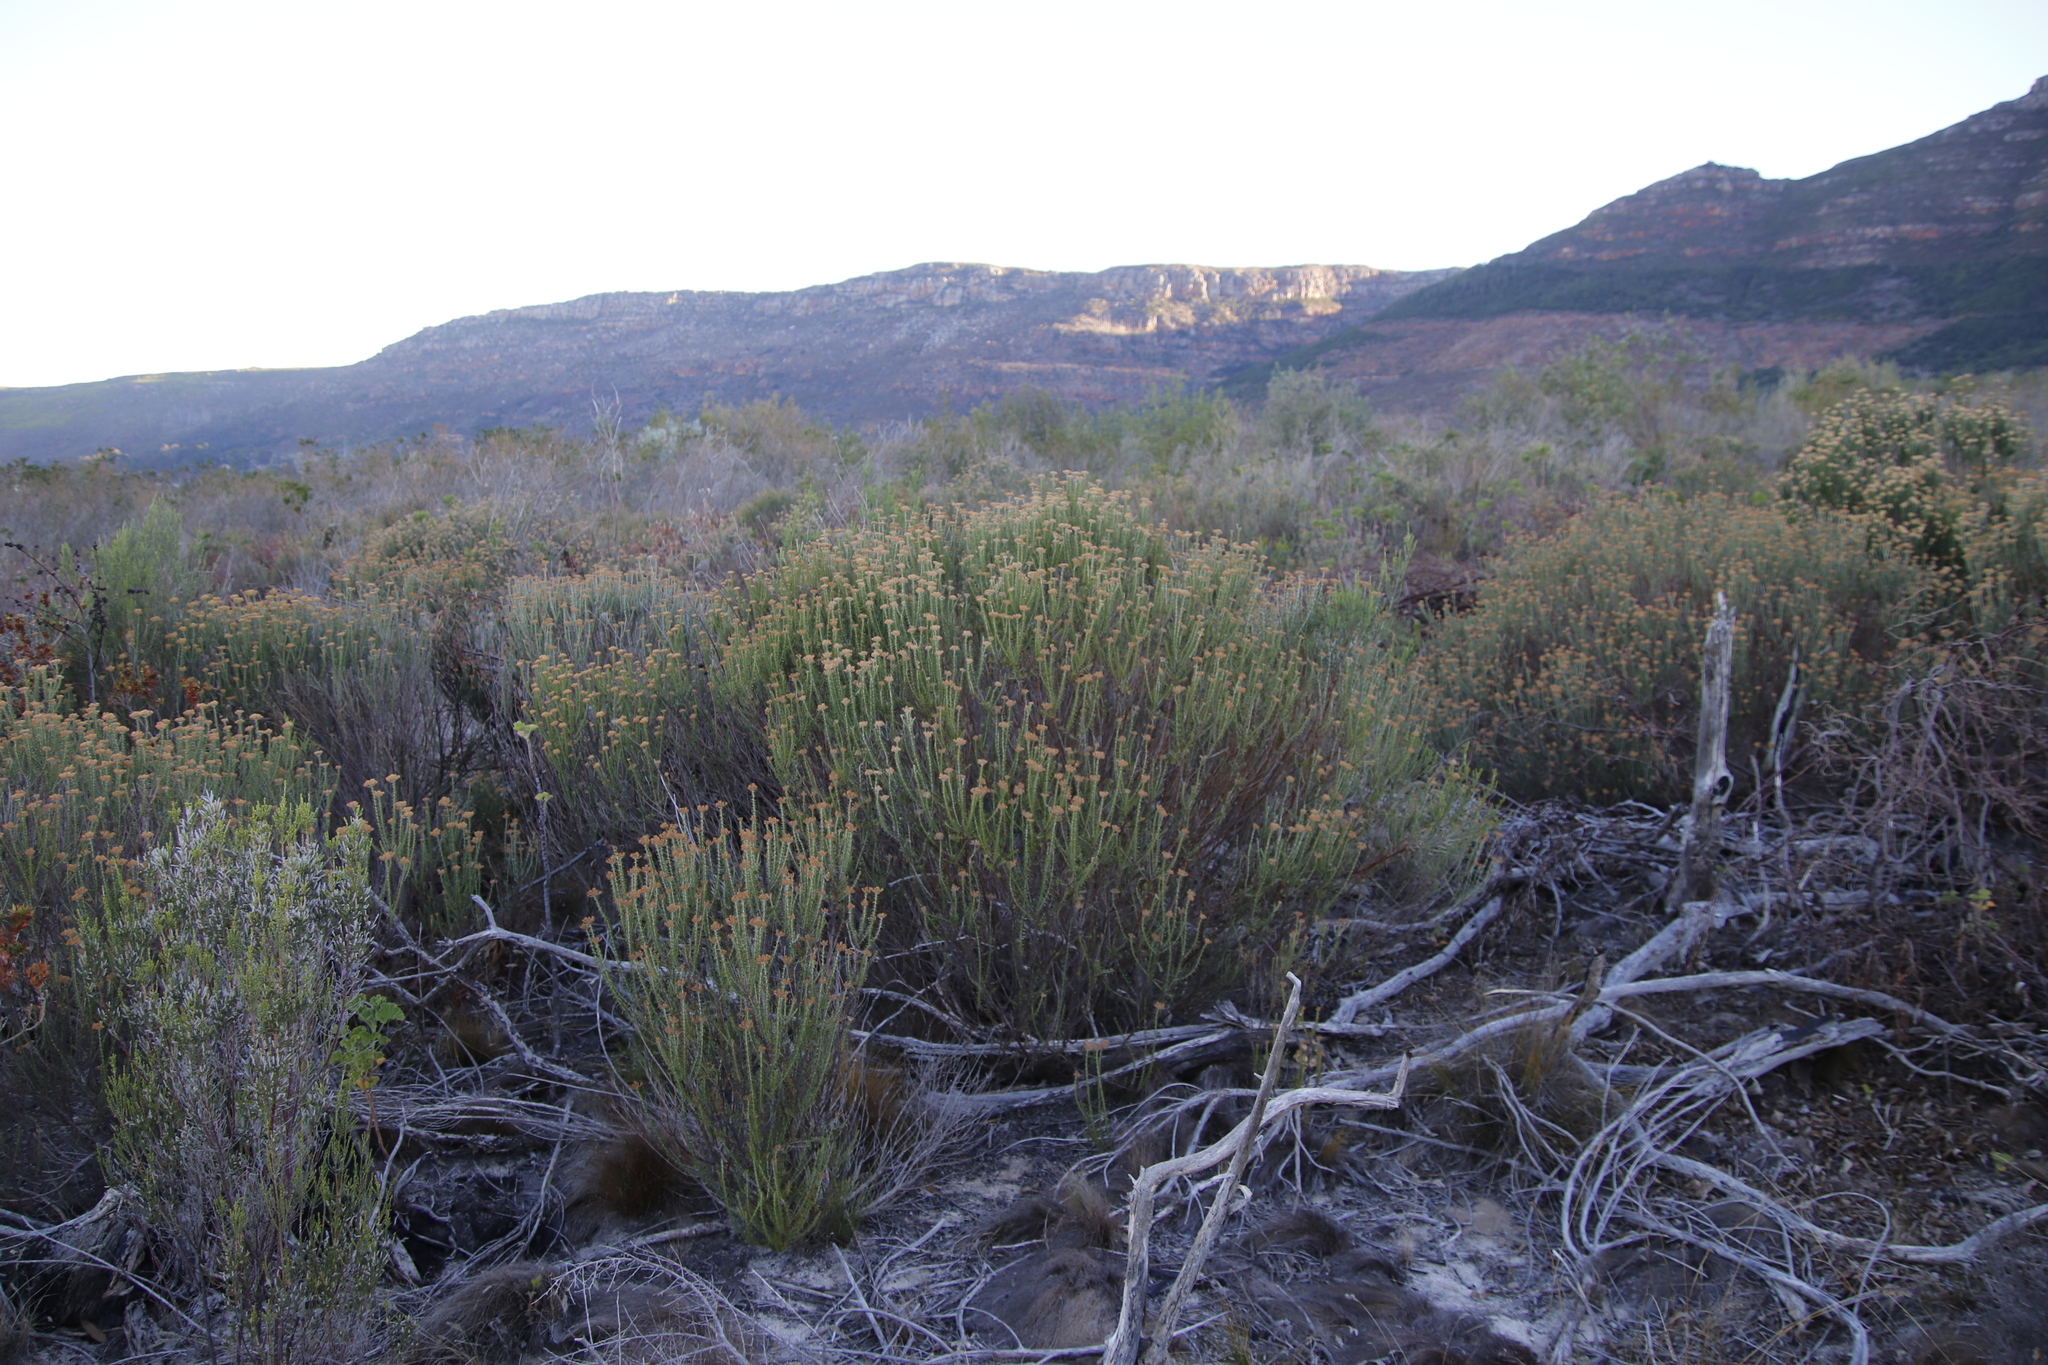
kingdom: Plantae
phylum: Tracheophyta
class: Magnoliopsida
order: Asterales
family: Asteraceae
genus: Metalasia
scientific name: Metalasia densa
